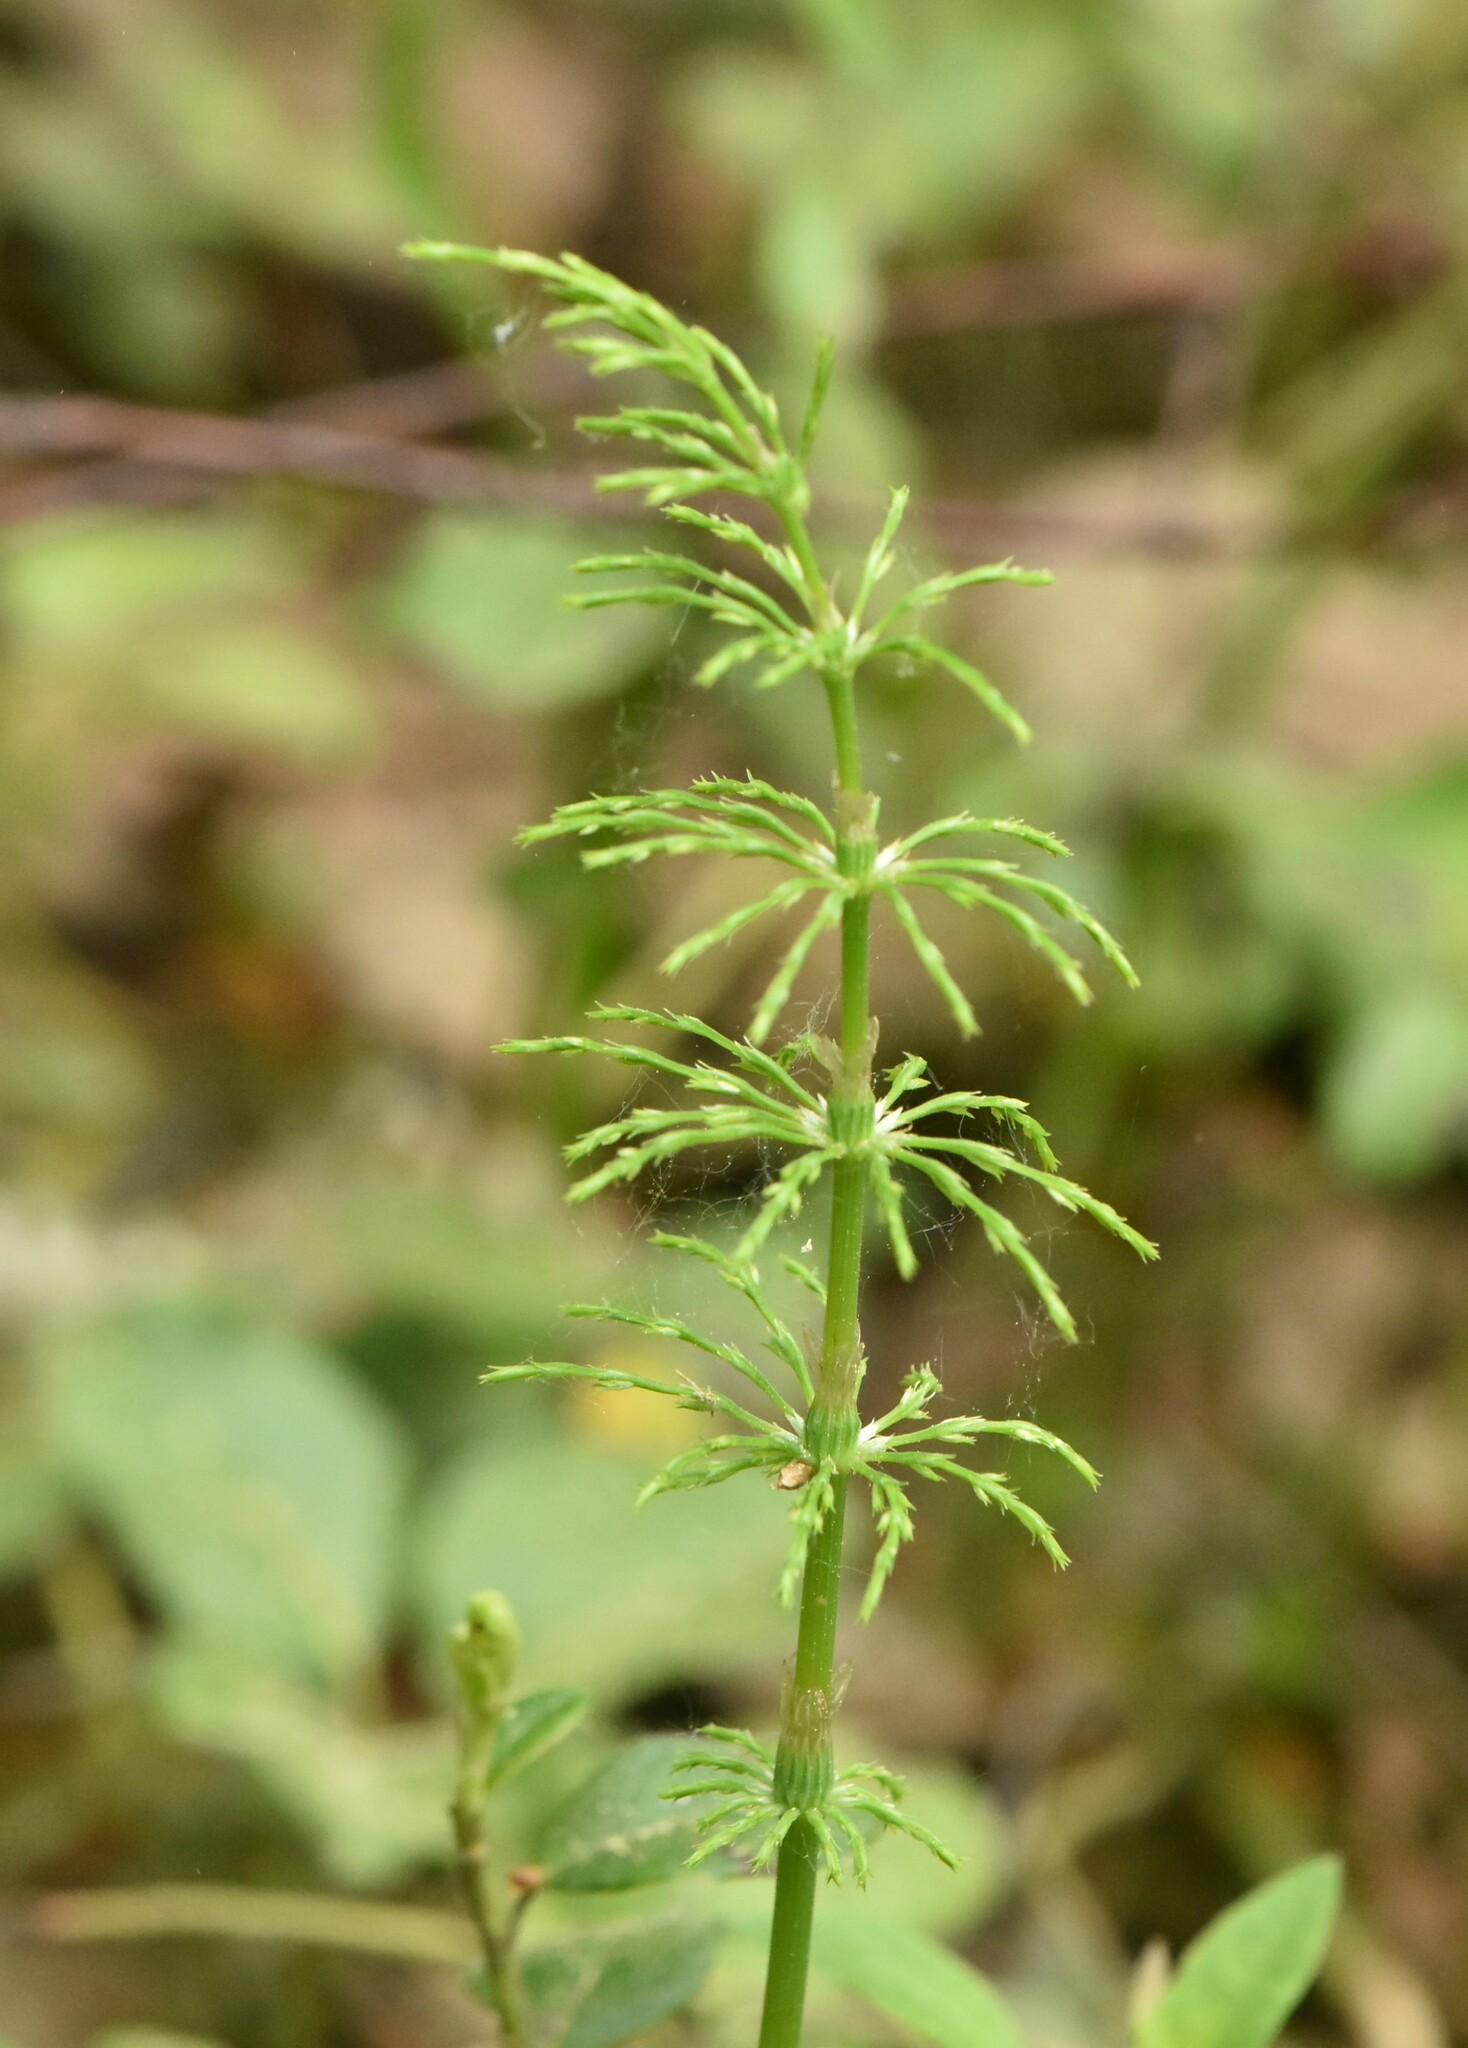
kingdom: Plantae
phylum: Tracheophyta
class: Polypodiopsida
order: Equisetales
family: Equisetaceae
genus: Equisetum
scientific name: Equisetum sylvaticum
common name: Wood horsetail
